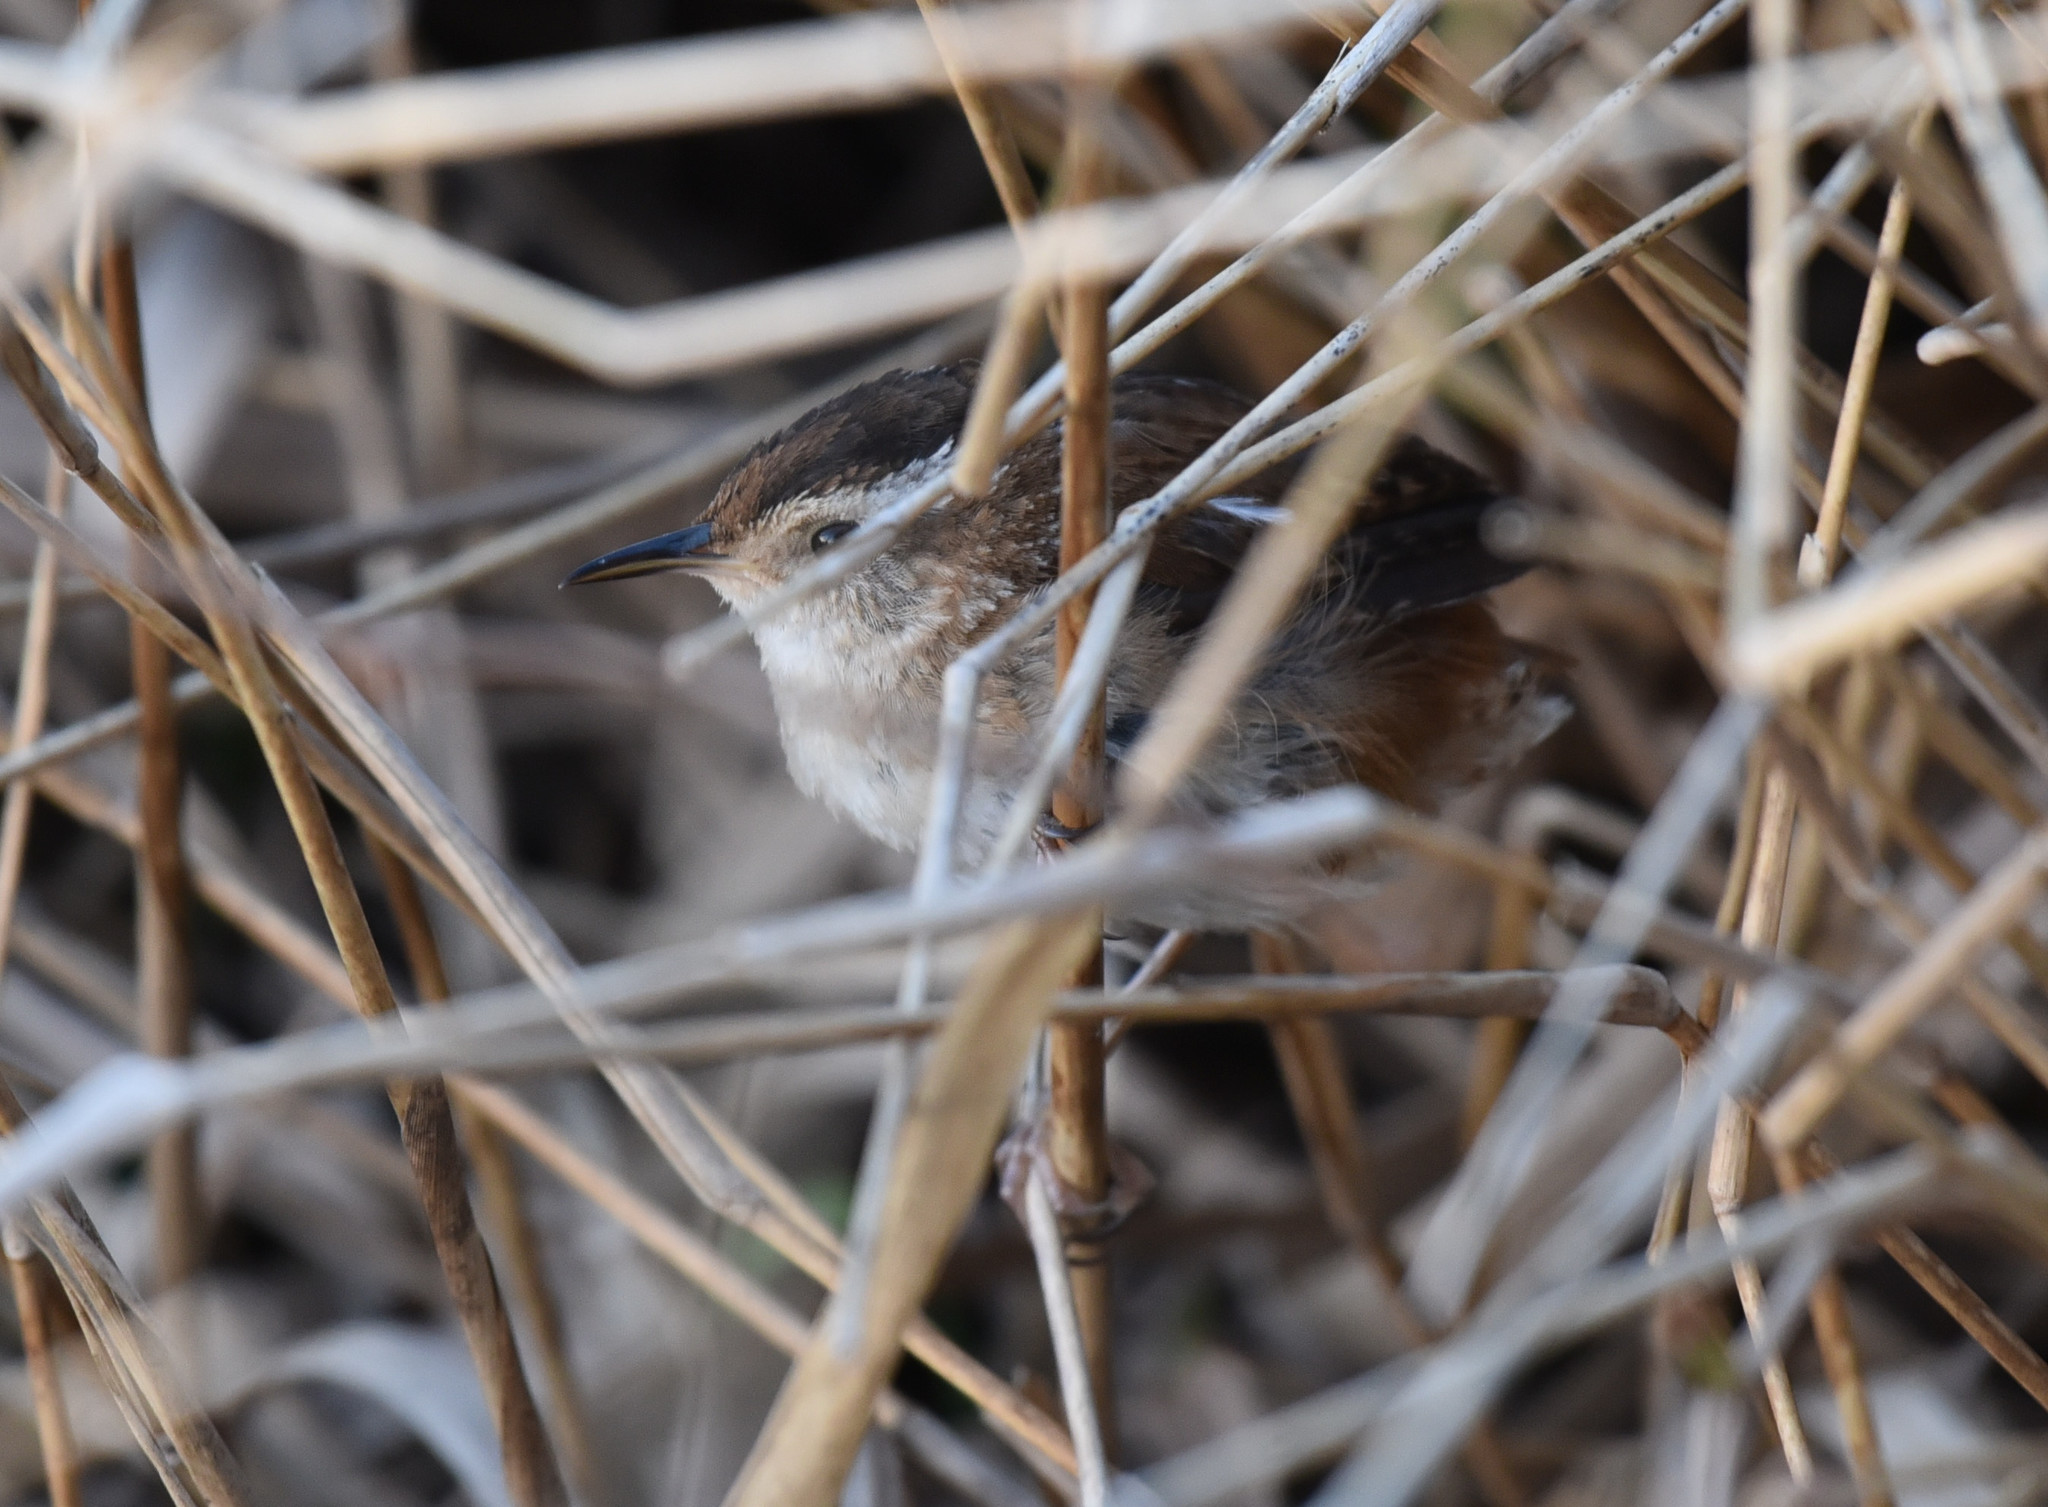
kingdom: Animalia
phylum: Chordata
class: Aves
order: Passeriformes
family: Troglodytidae
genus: Cistothorus
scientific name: Cistothorus palustris
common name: Marsh wren
